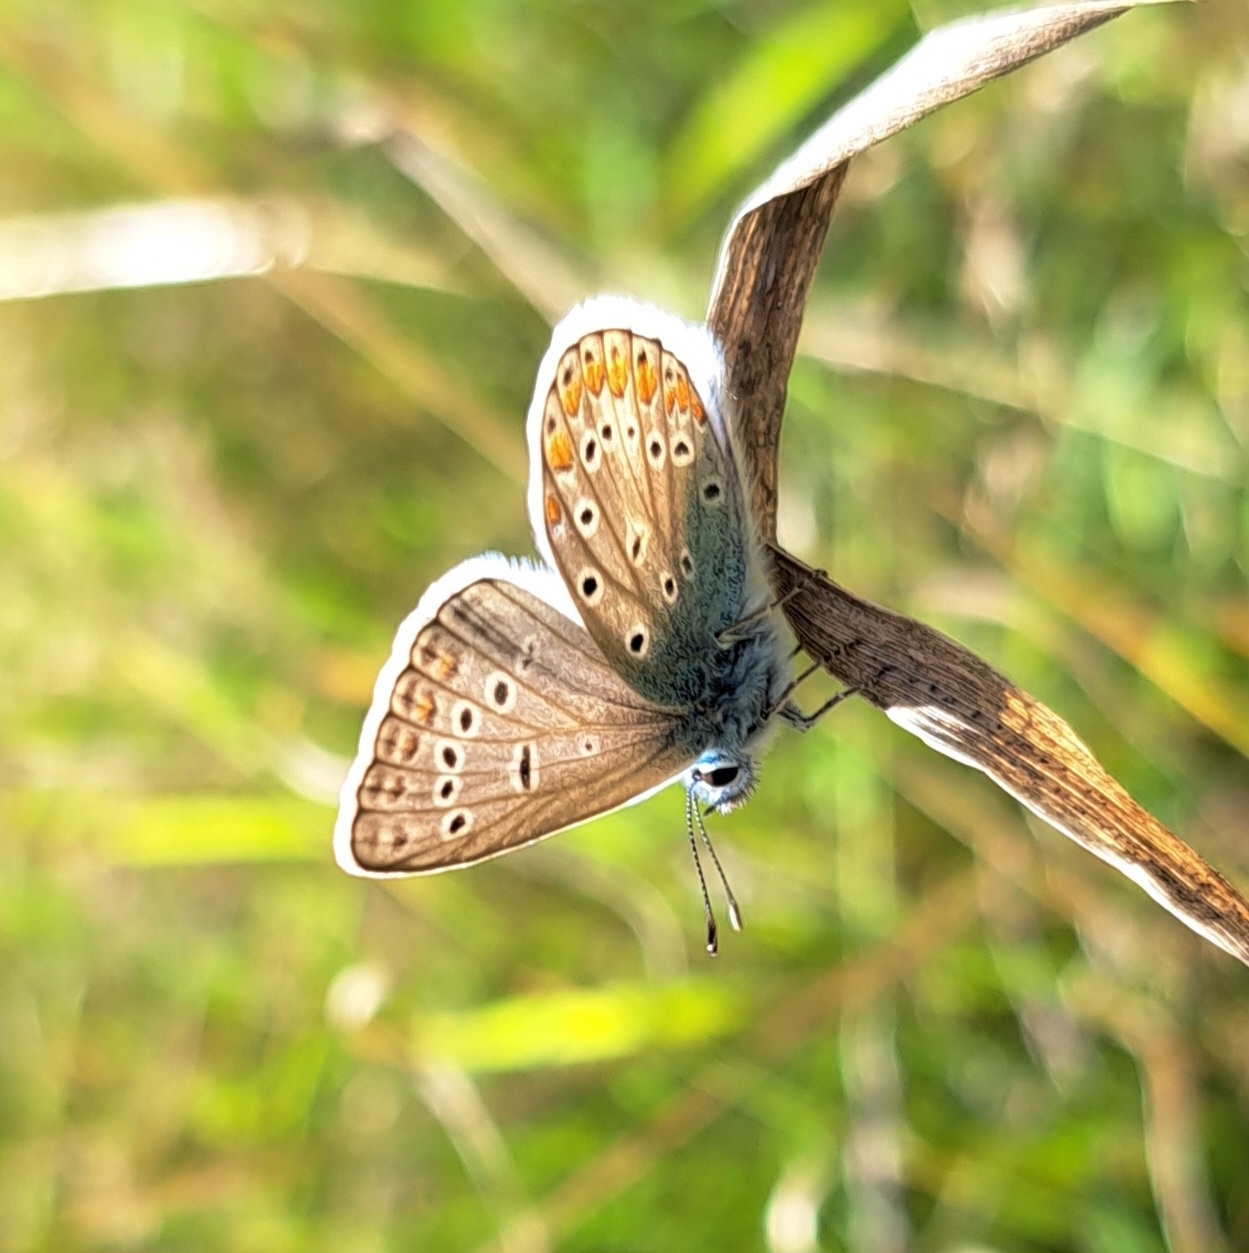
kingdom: Animalia
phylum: Arthropoda
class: Insecta
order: Lepidoptera
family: Lycaenidae
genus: Polyommatus
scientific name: Polyommatus icarus
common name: Common blue
